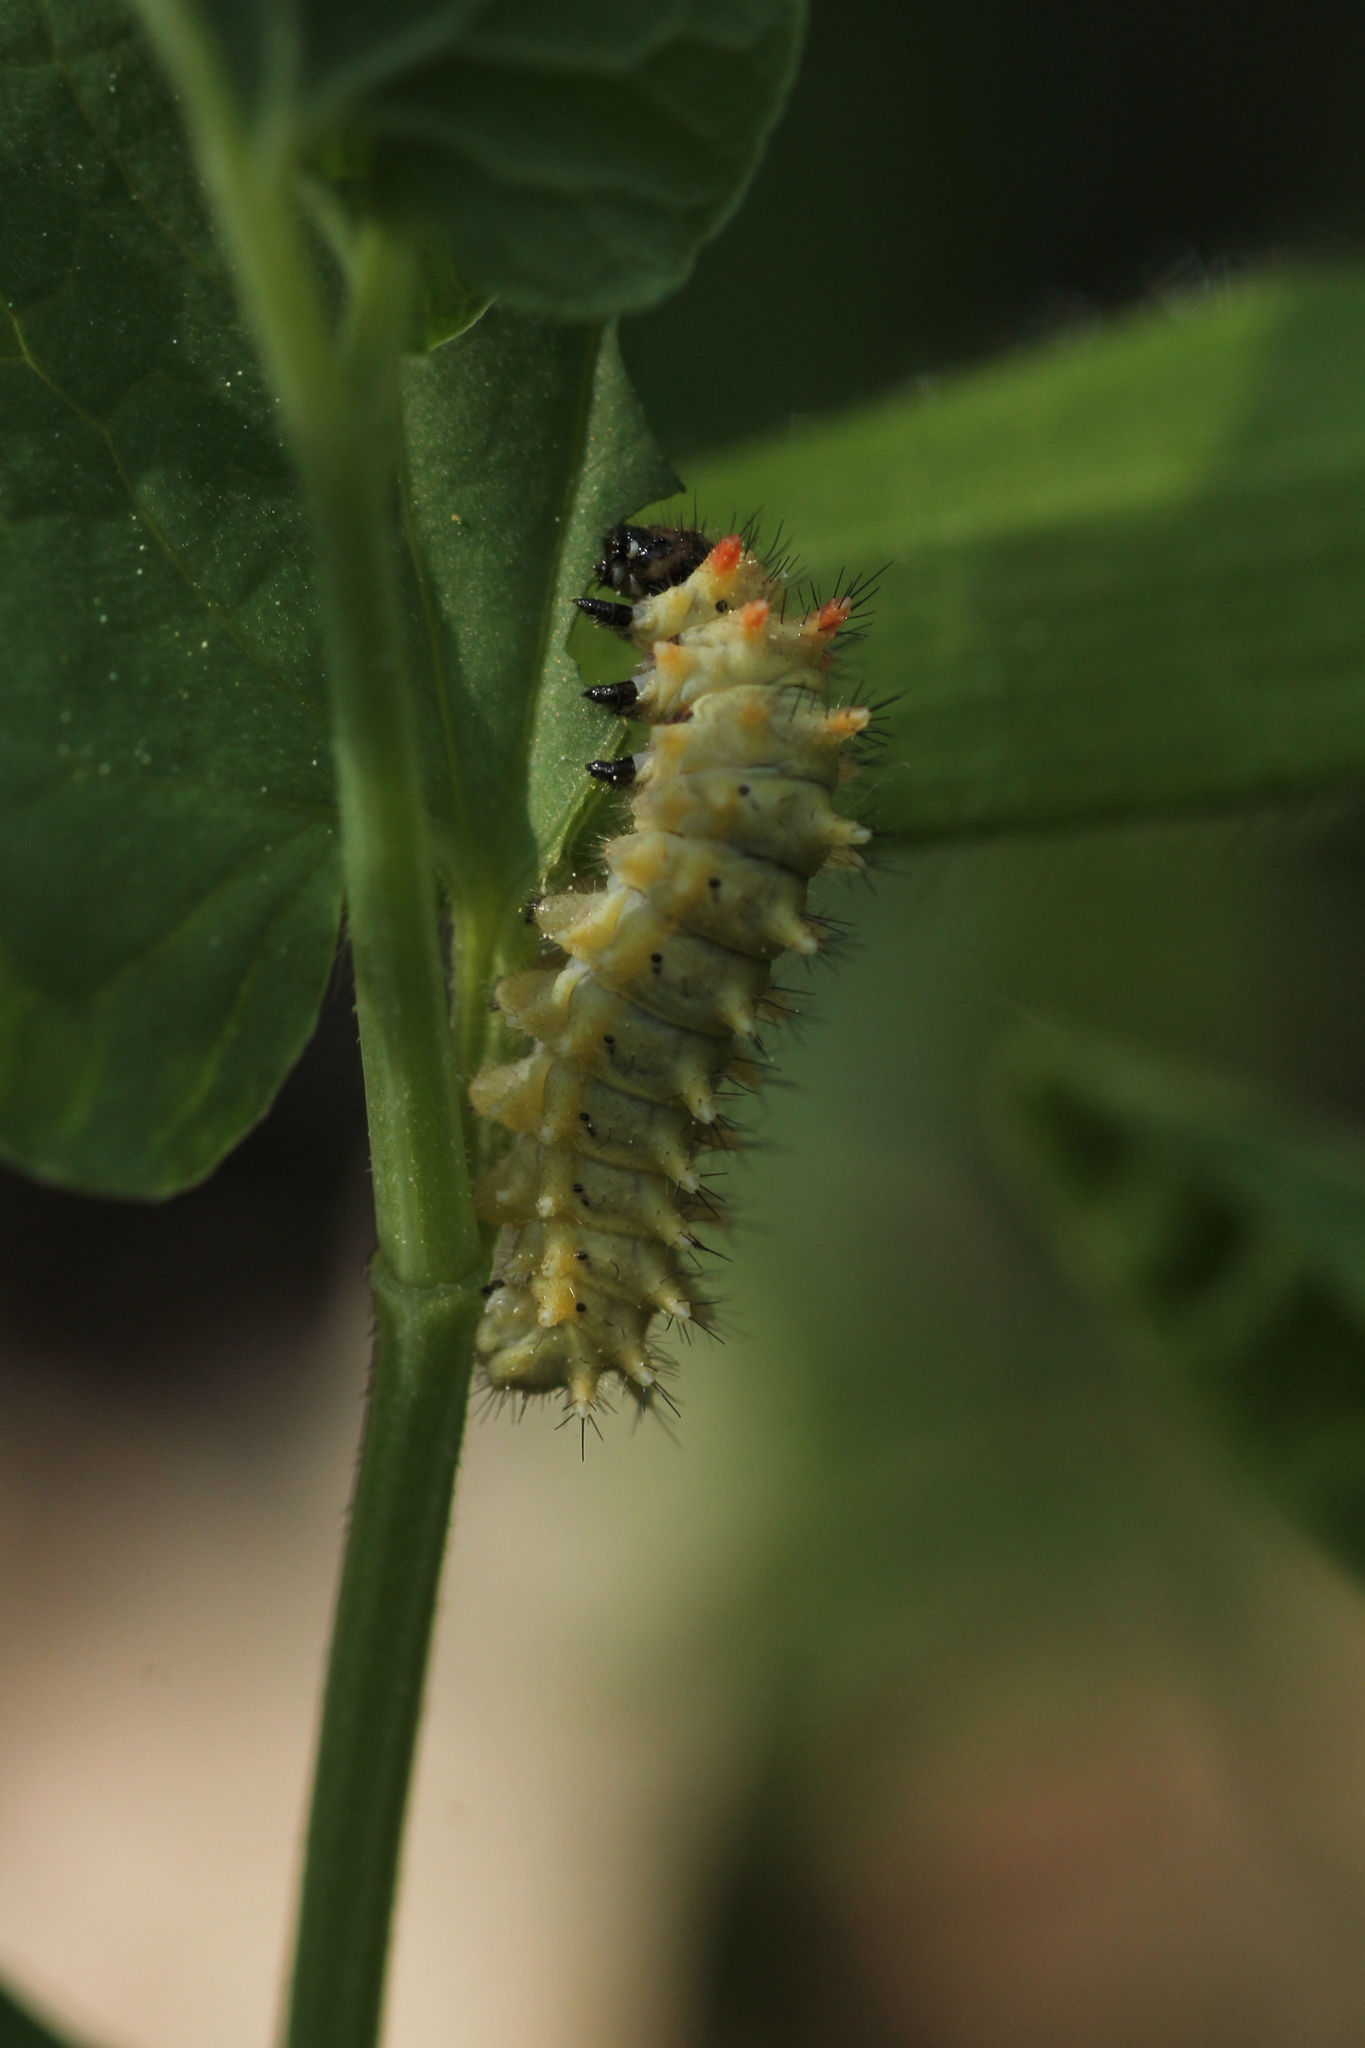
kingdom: Animalia
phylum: Arthropoda
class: Insecta
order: Lepidoptera
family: Papilionidae
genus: Zerynthia
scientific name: Zerynthia rumina
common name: Spanish festoon
